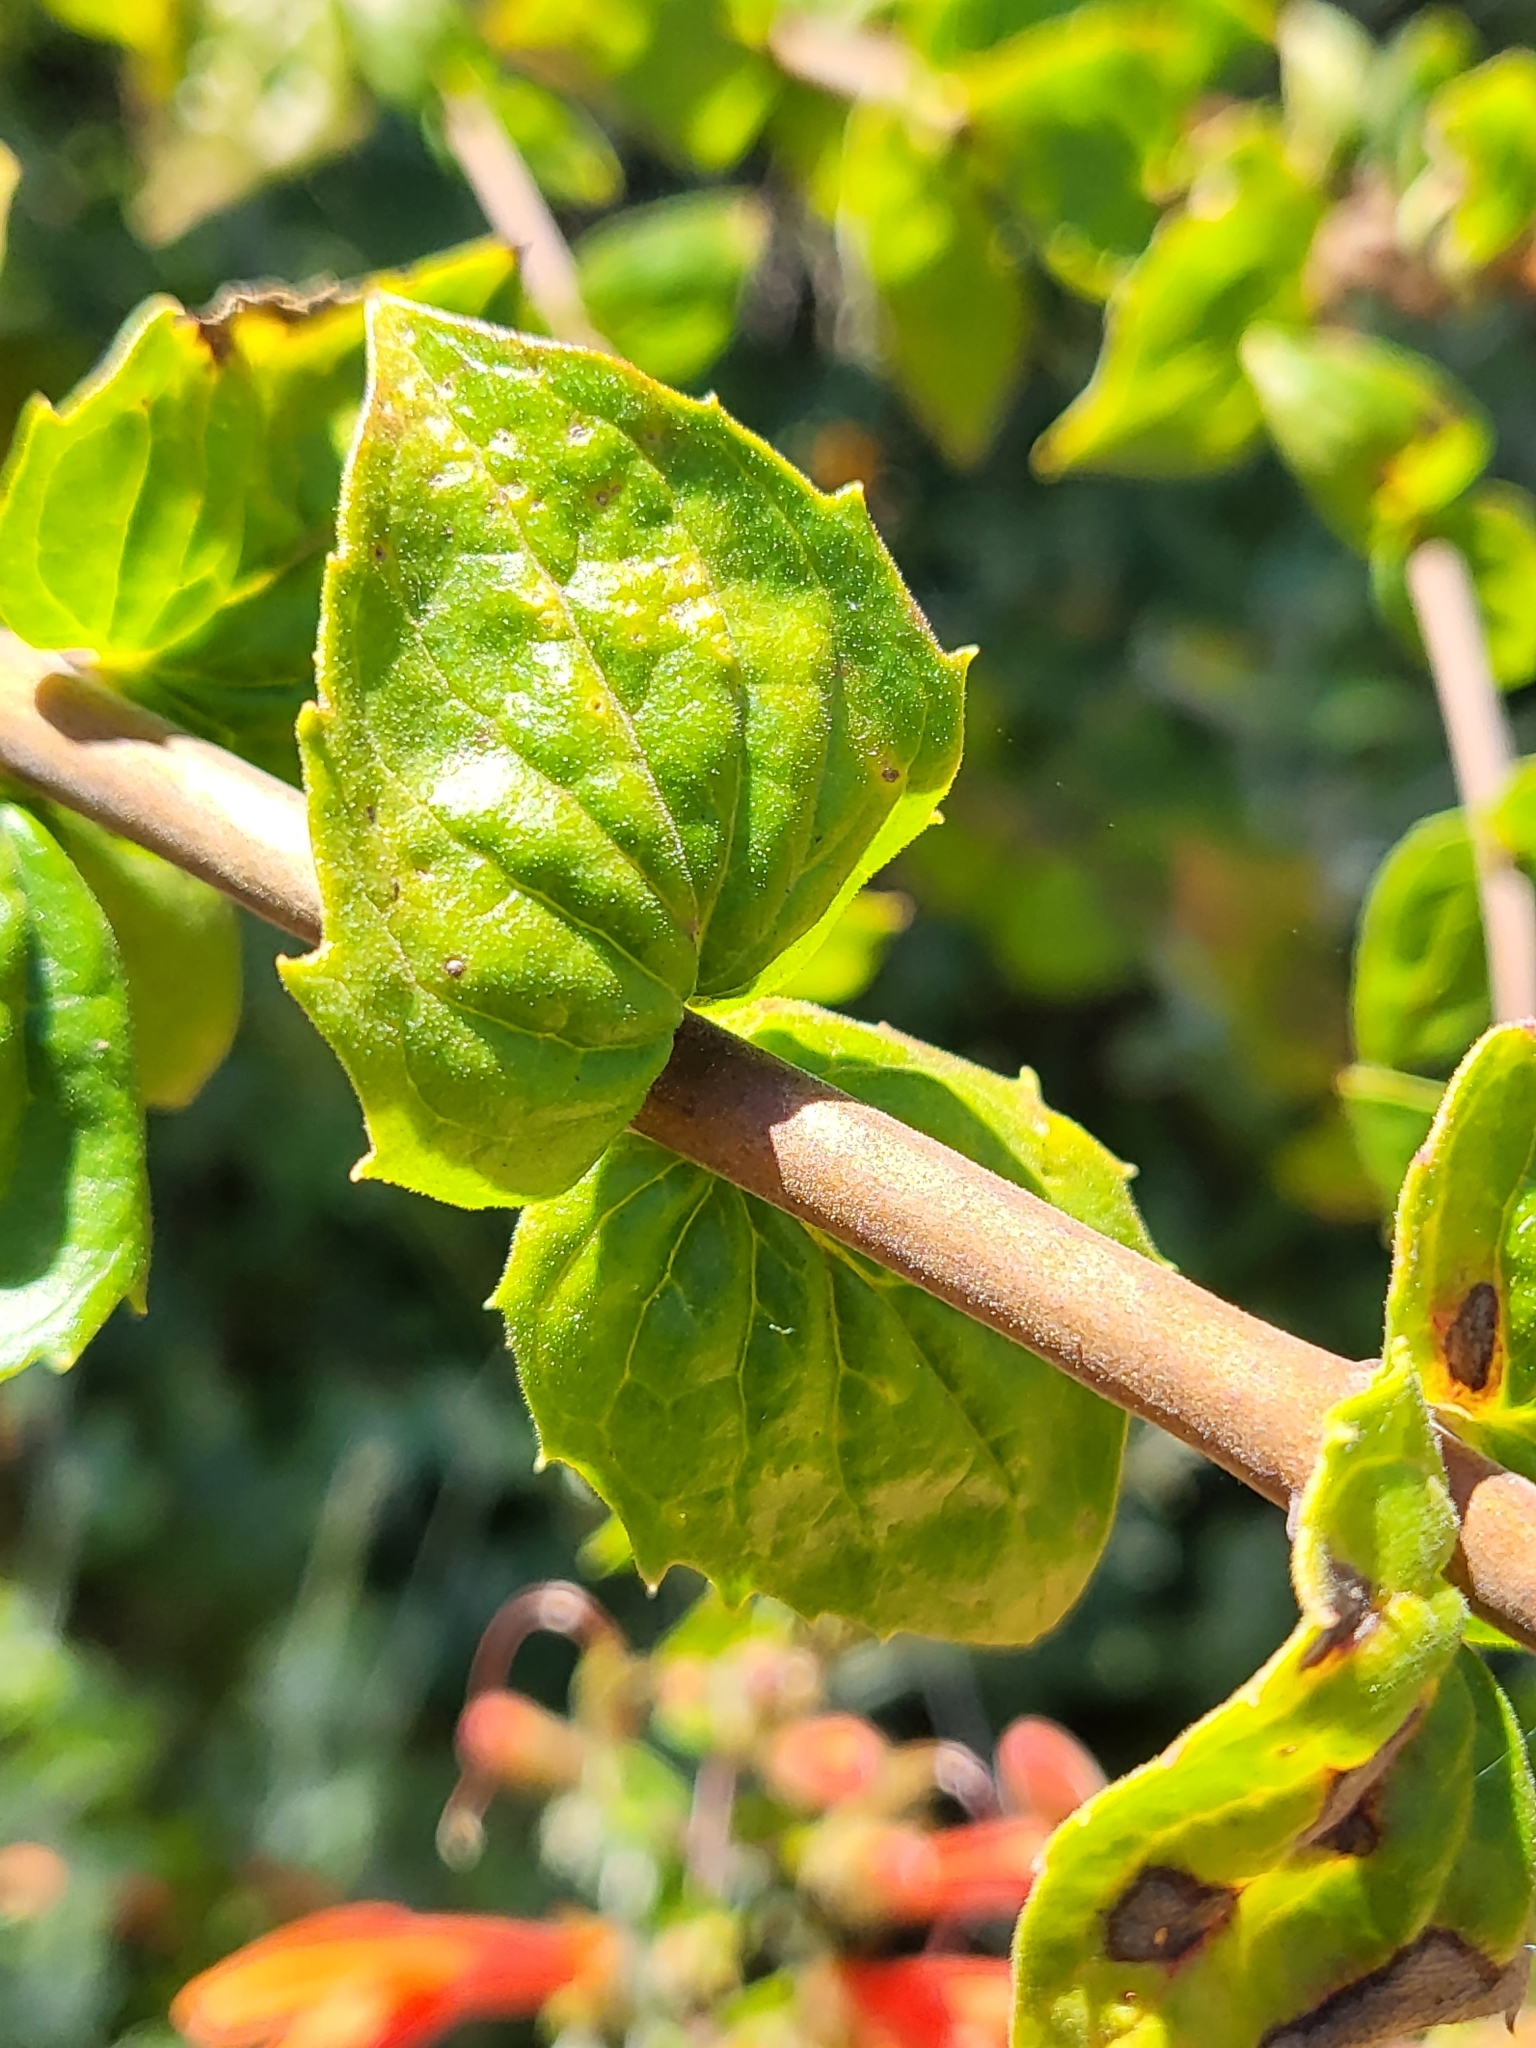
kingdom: Plantae
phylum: Tracheophyta
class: Magnoliopsida
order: Lamiales
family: Plantaginaceae
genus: Keckiella
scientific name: Keckiella cordifolia
